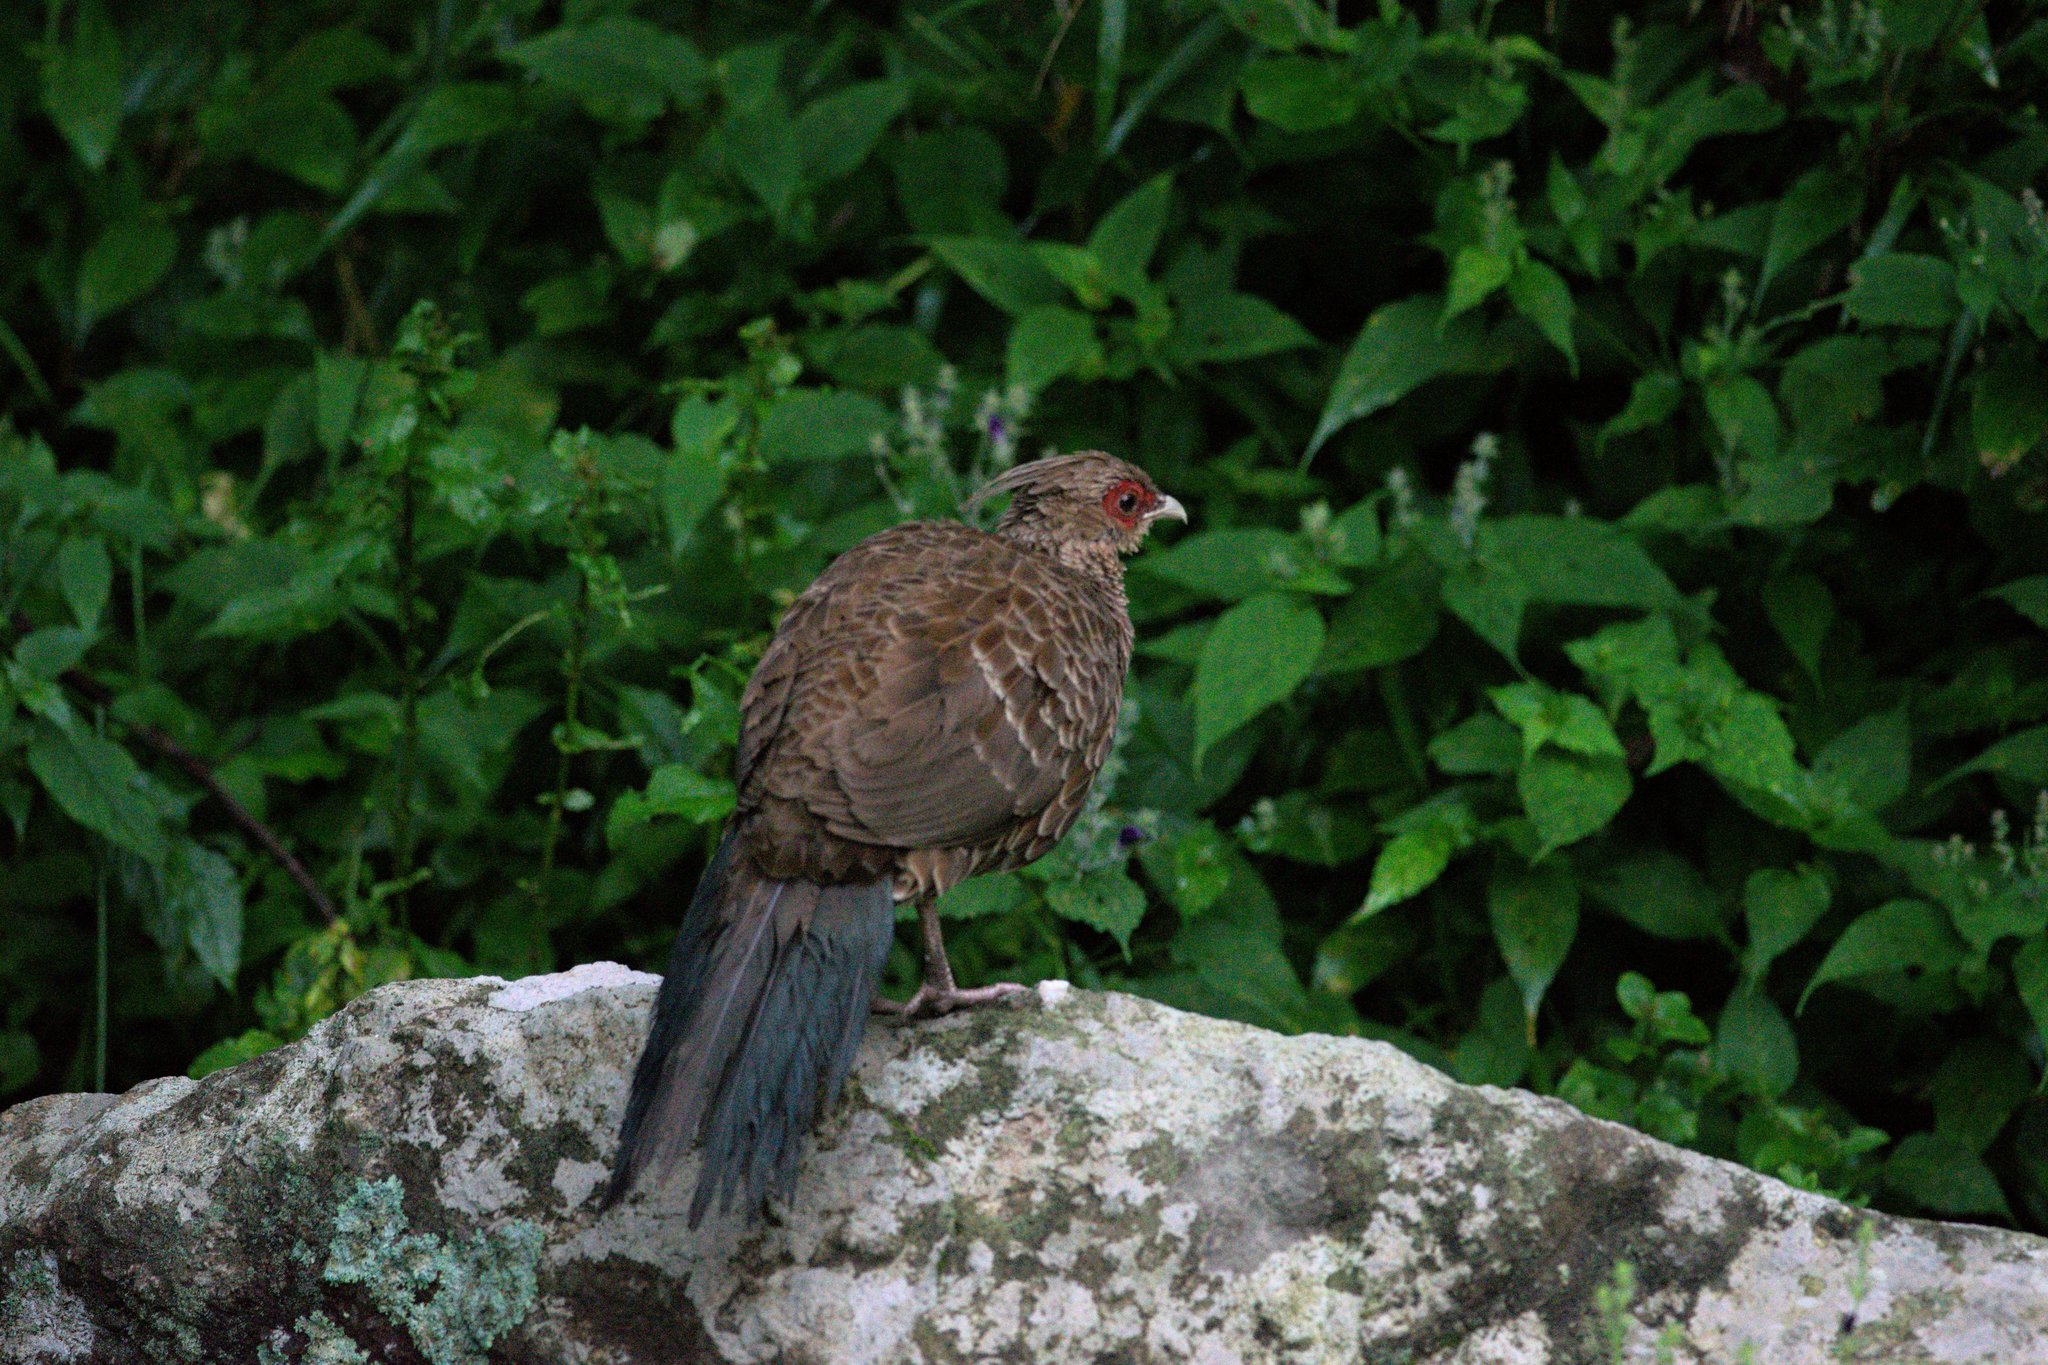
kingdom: Animalia
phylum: Chordata
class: Aves
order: Galliformes
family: Phasianidae
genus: Lophura
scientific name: Lophura leucomelanos
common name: Kalij pheasant
